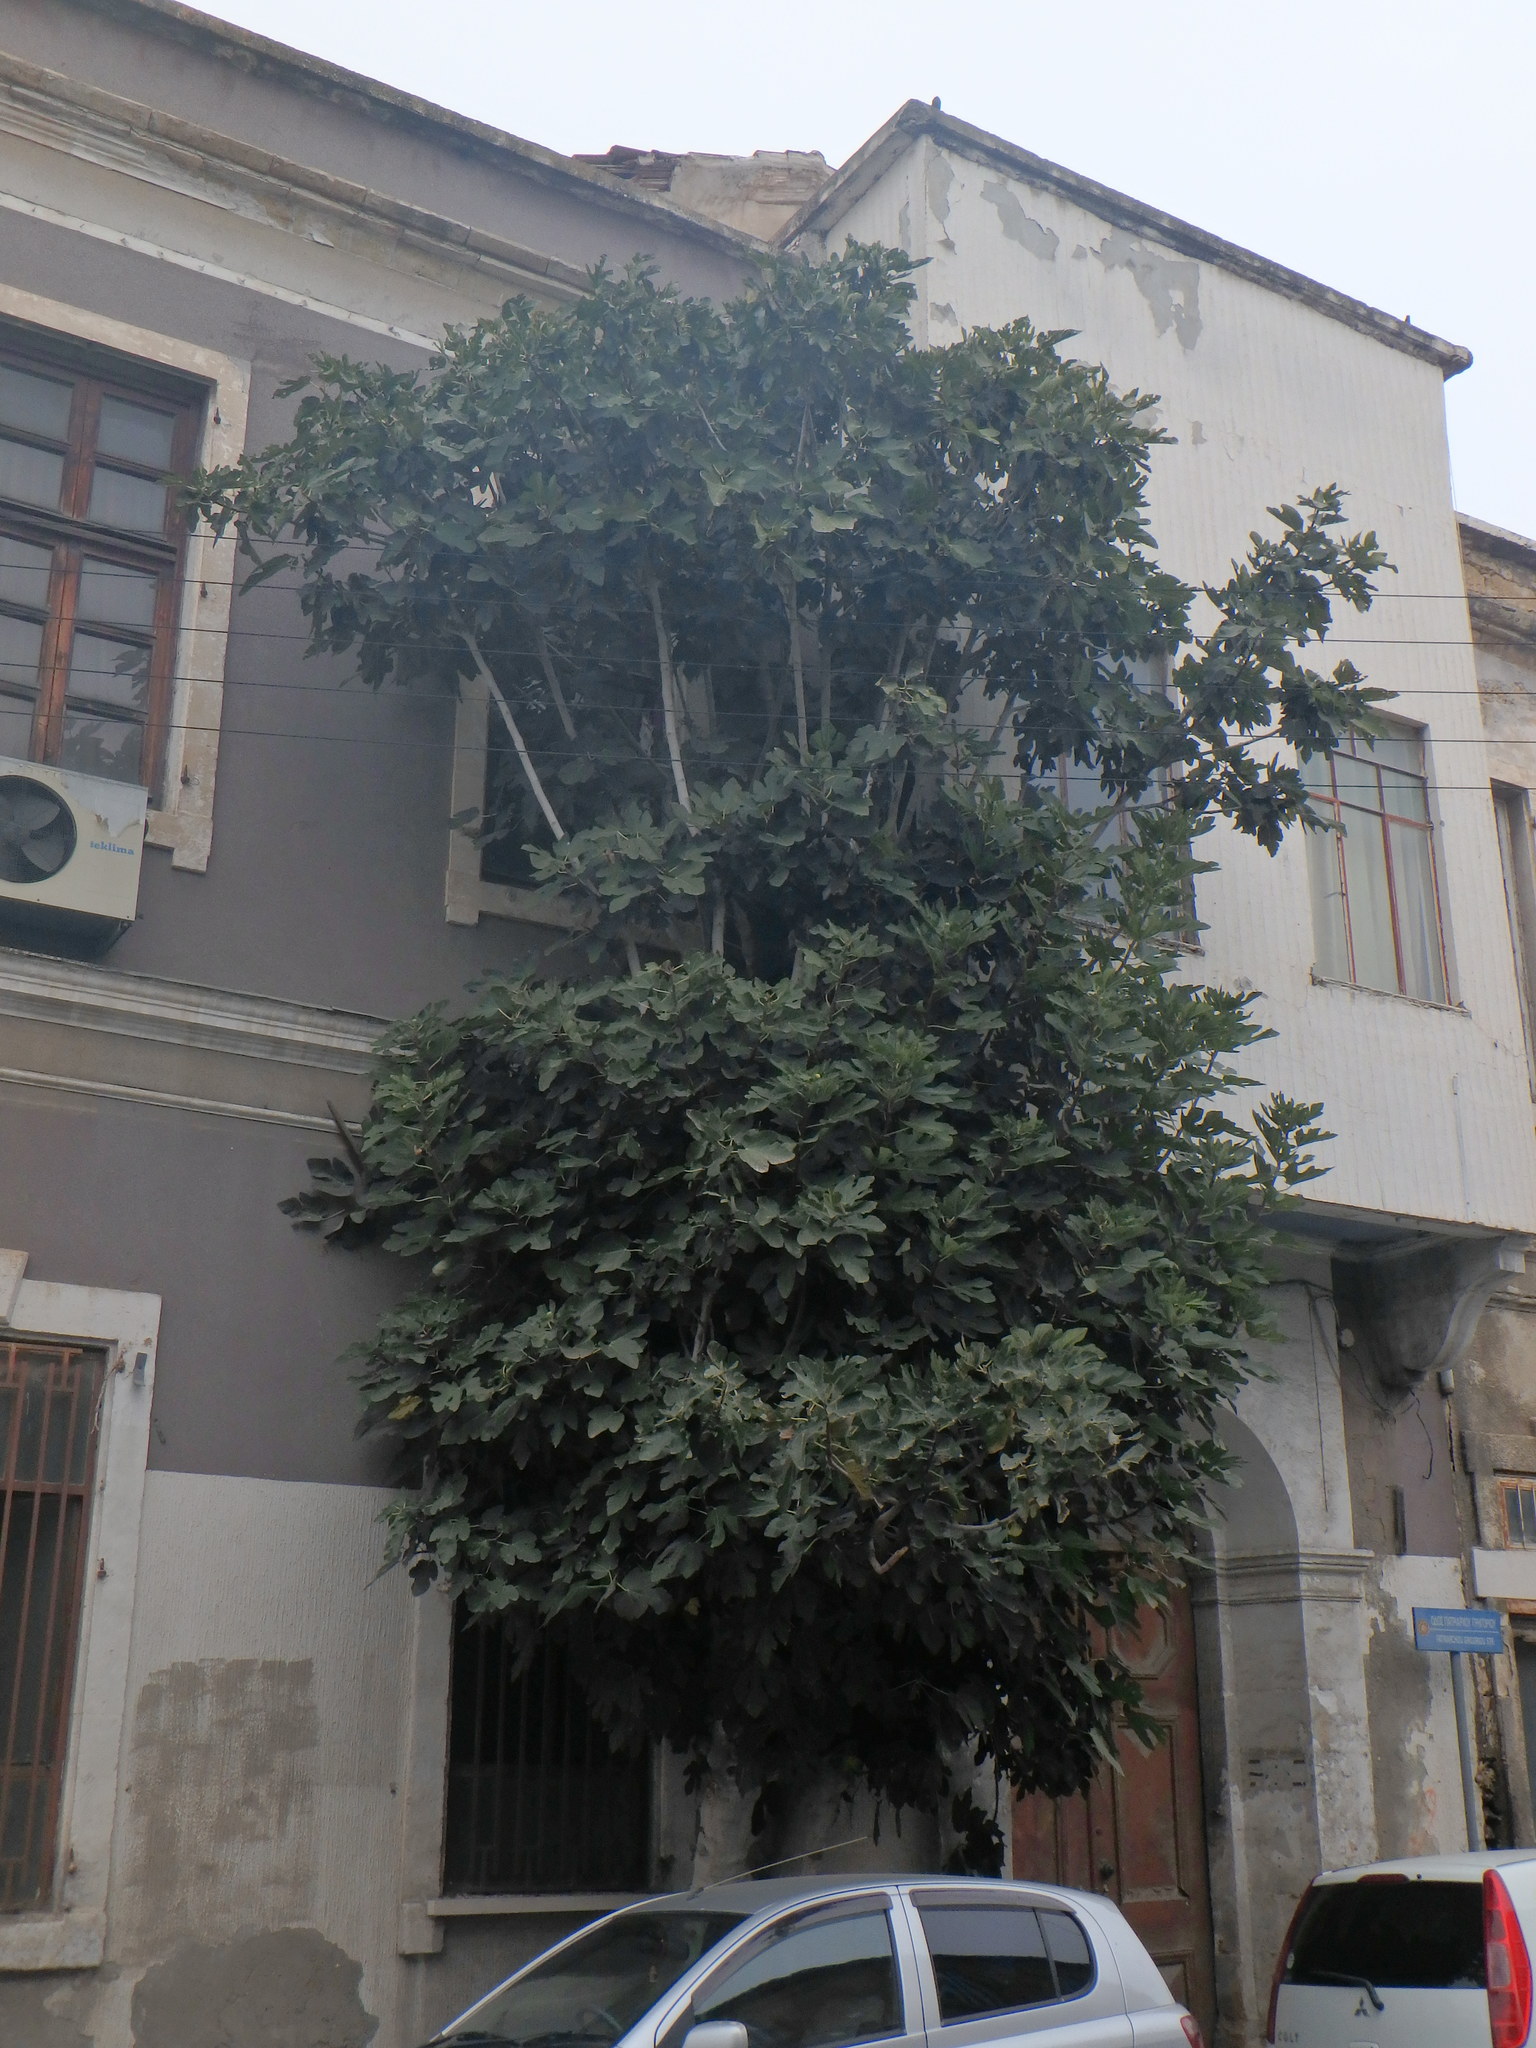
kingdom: Plantae
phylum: Tracheophyta
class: Magnoliopsida
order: Rosales
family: Moraceae
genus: Ficus
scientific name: Ficus carica
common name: Fig
